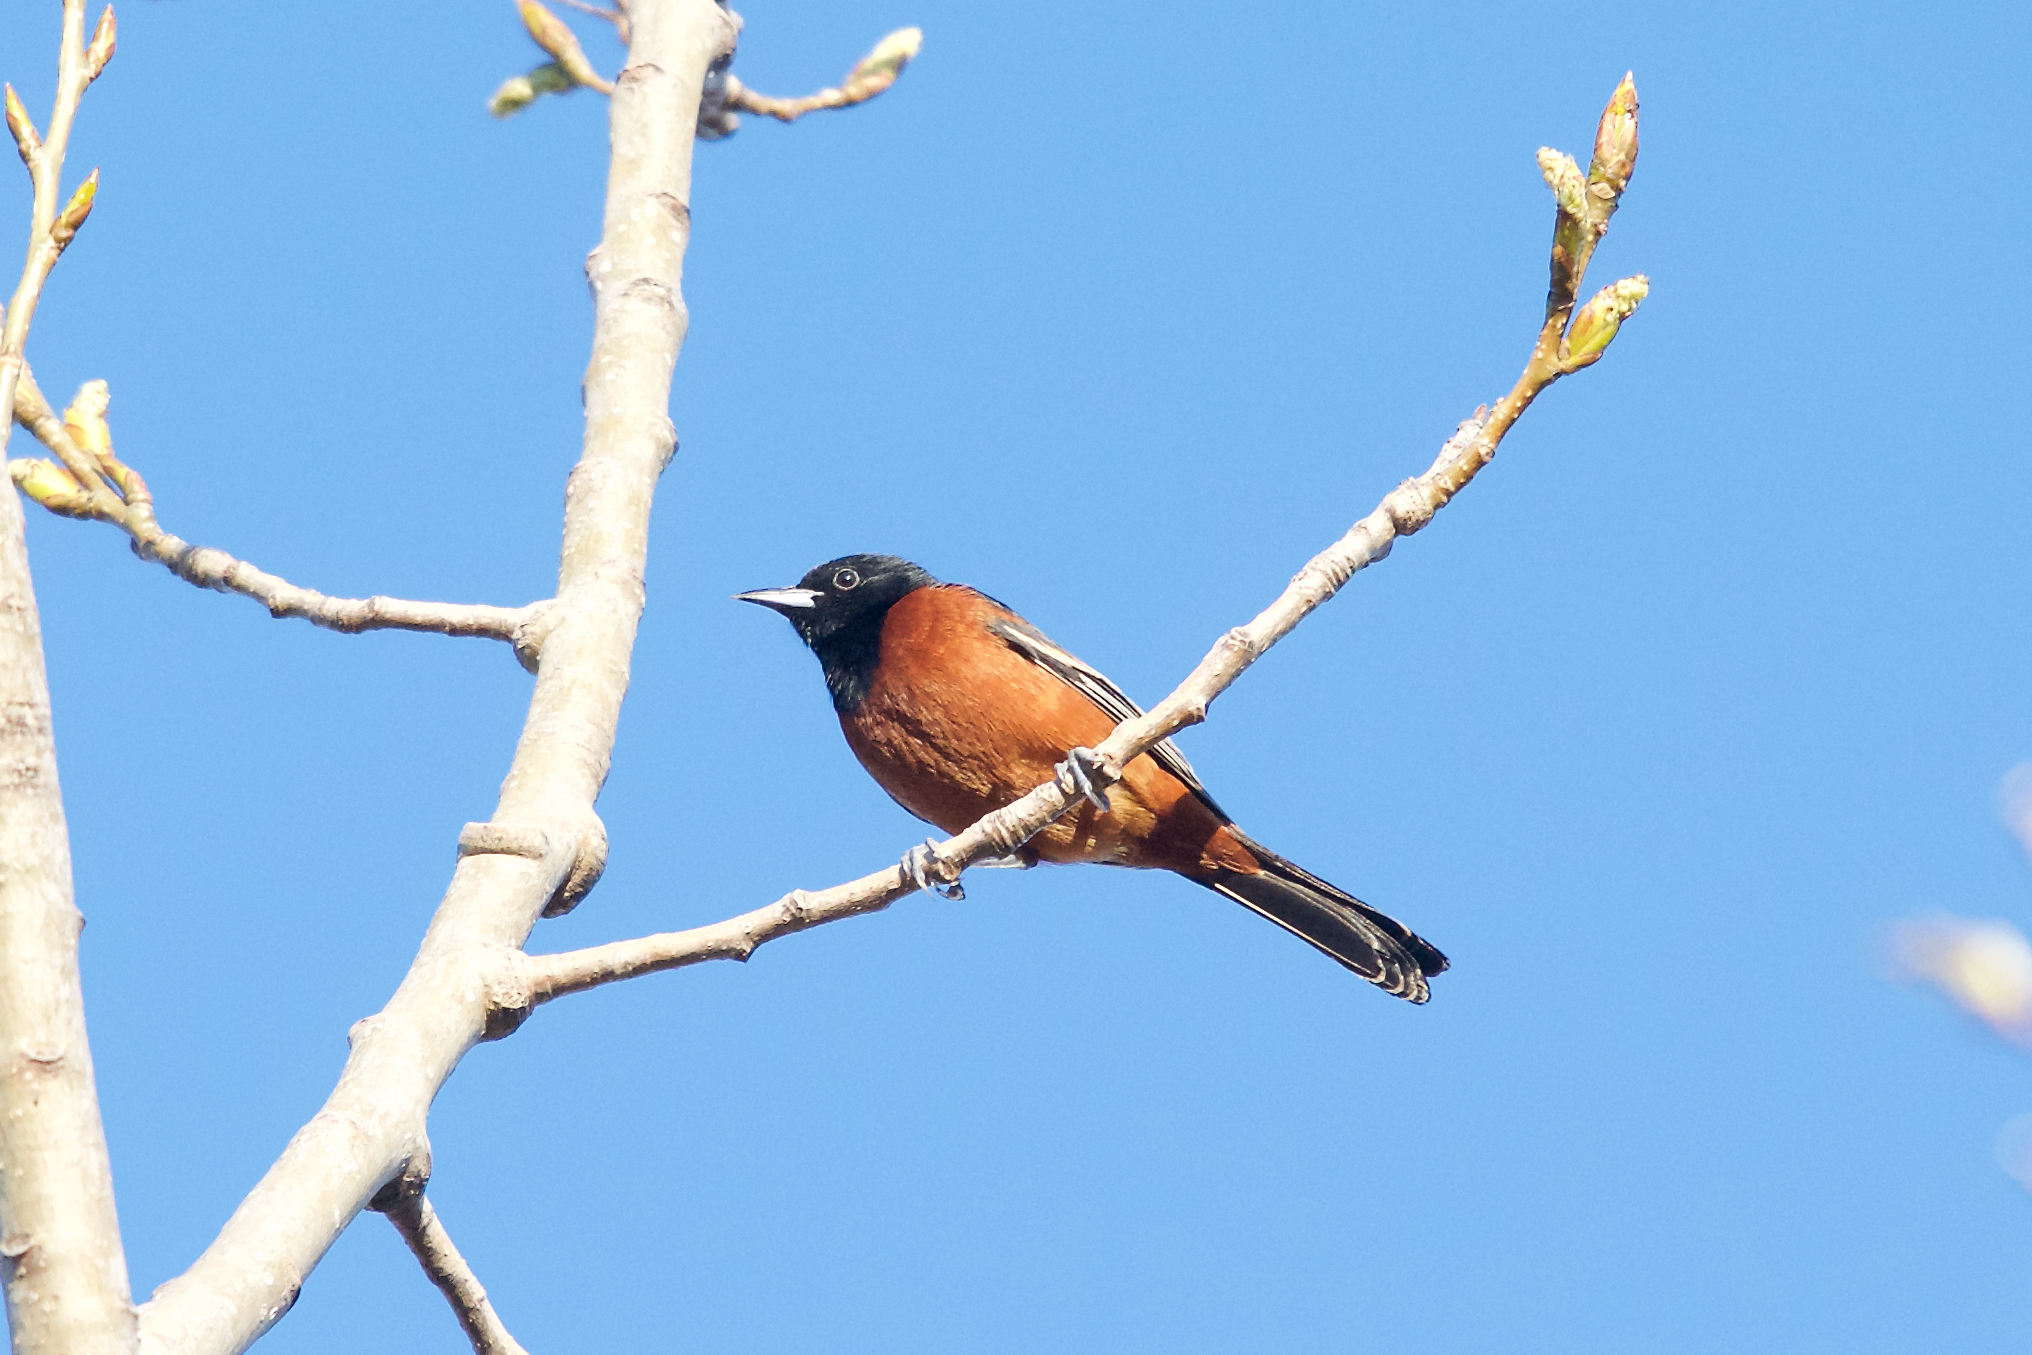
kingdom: Animalia
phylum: Chordata
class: Aves
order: Passeriformes
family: Icteridae
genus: Icterus
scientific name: Icterus spurius
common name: Orchard oriole
